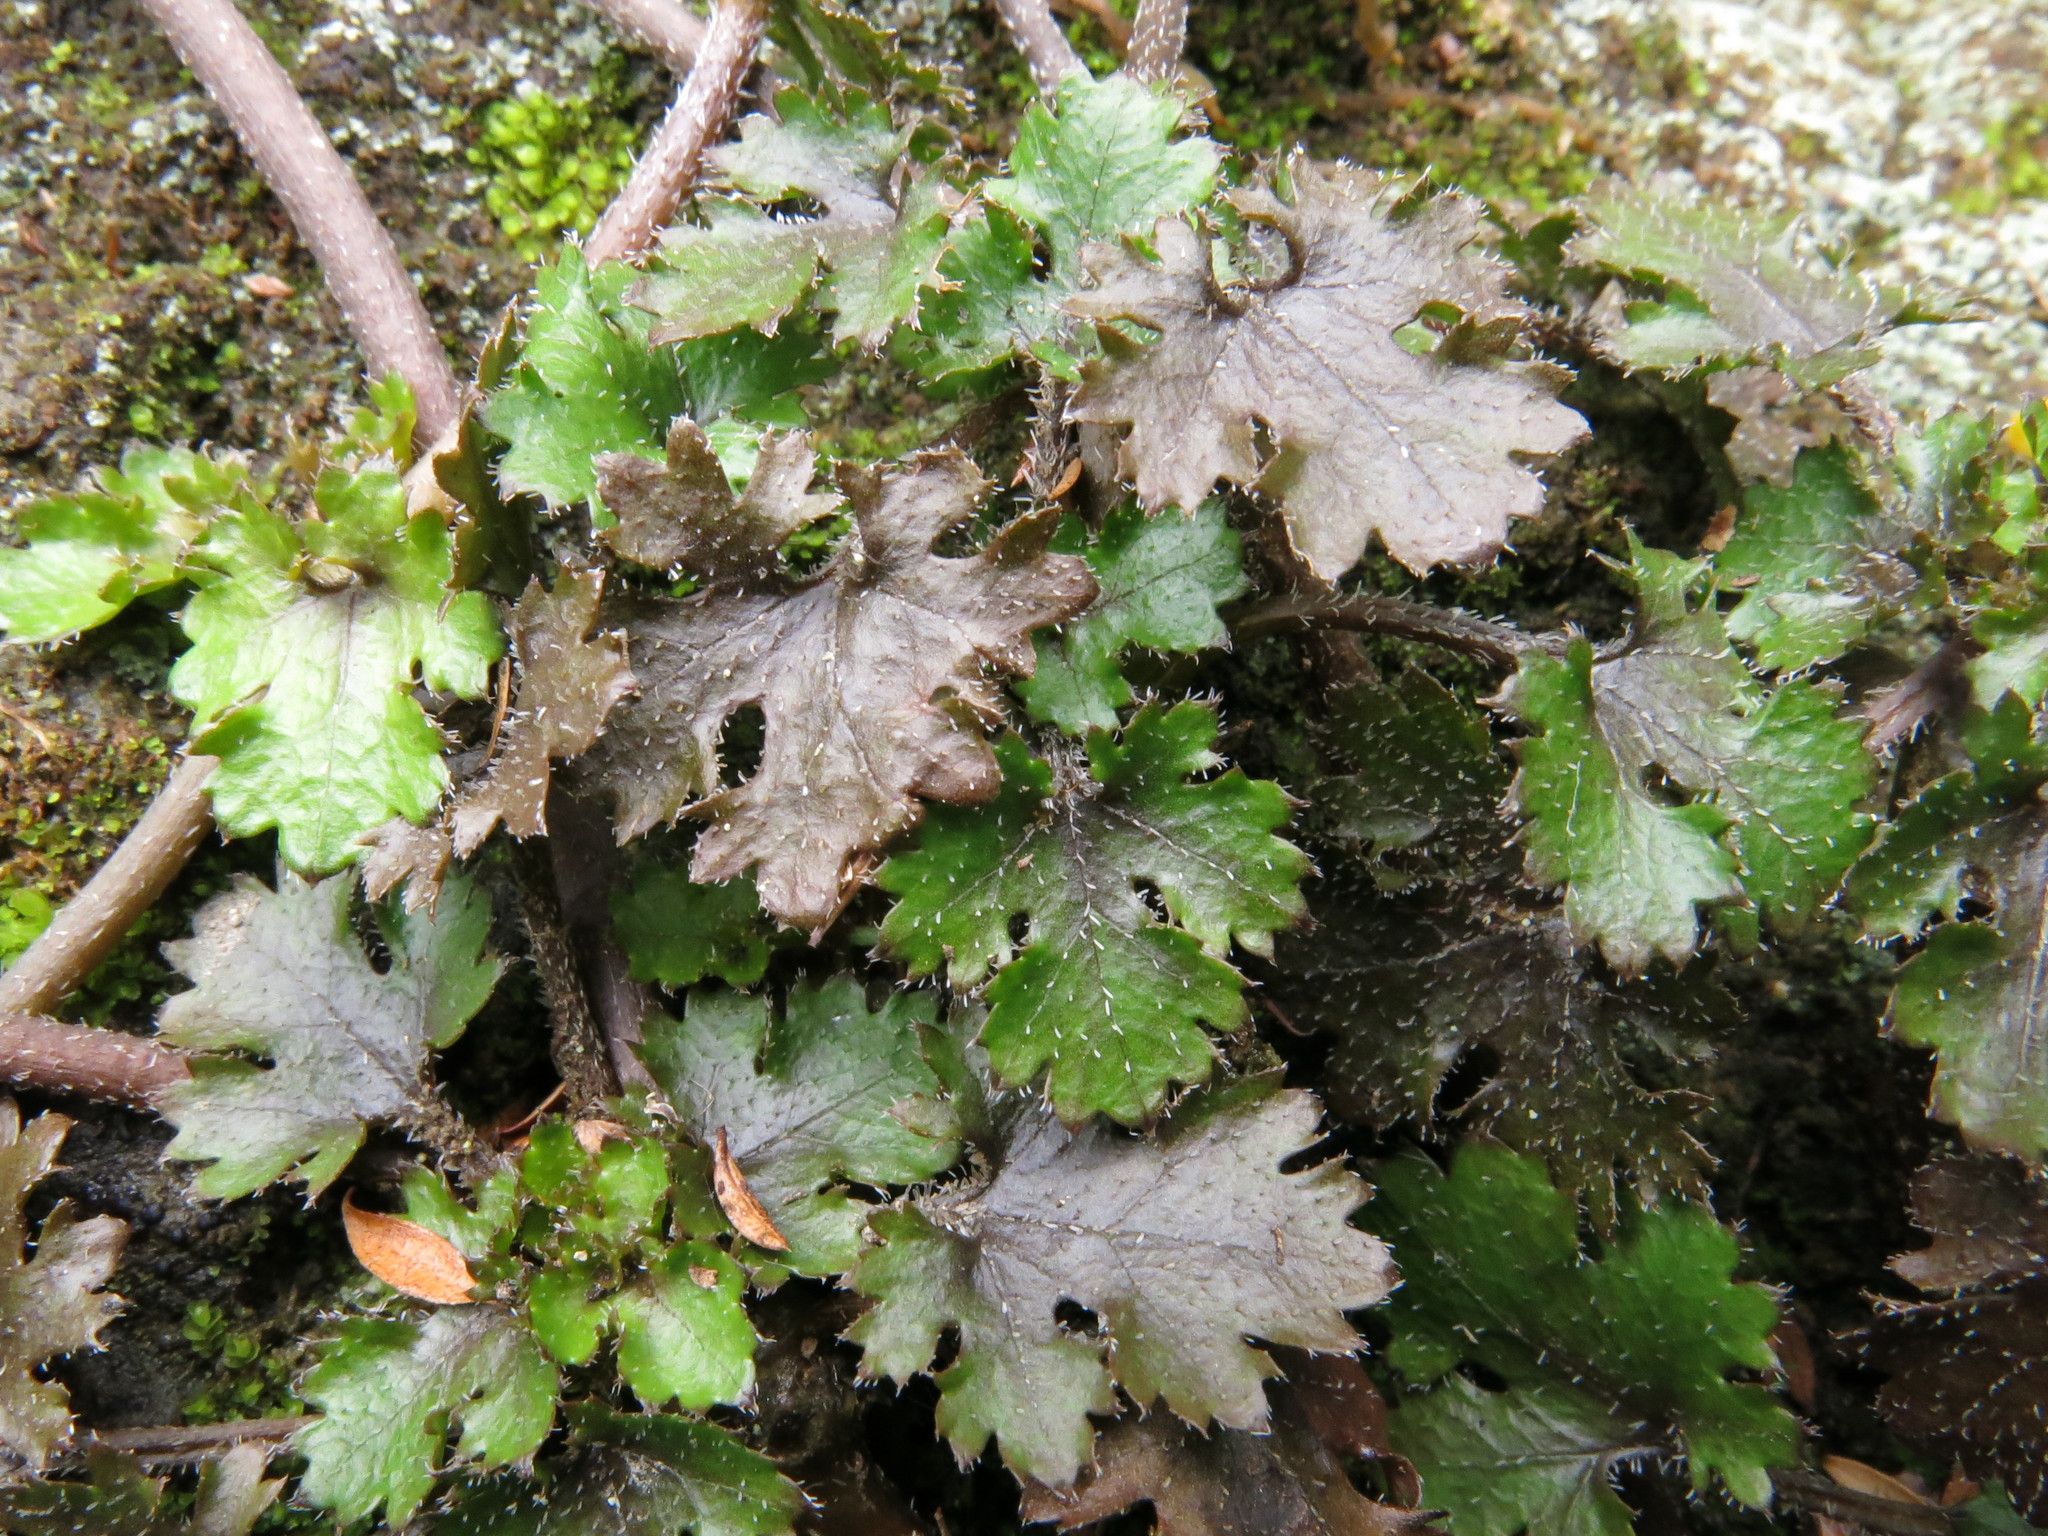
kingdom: Plantae
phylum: Tracheophyta
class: Magnoliopsida
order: Gunnerales
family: Gunneraceae
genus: Gunnera
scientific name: Gunnera monoica
